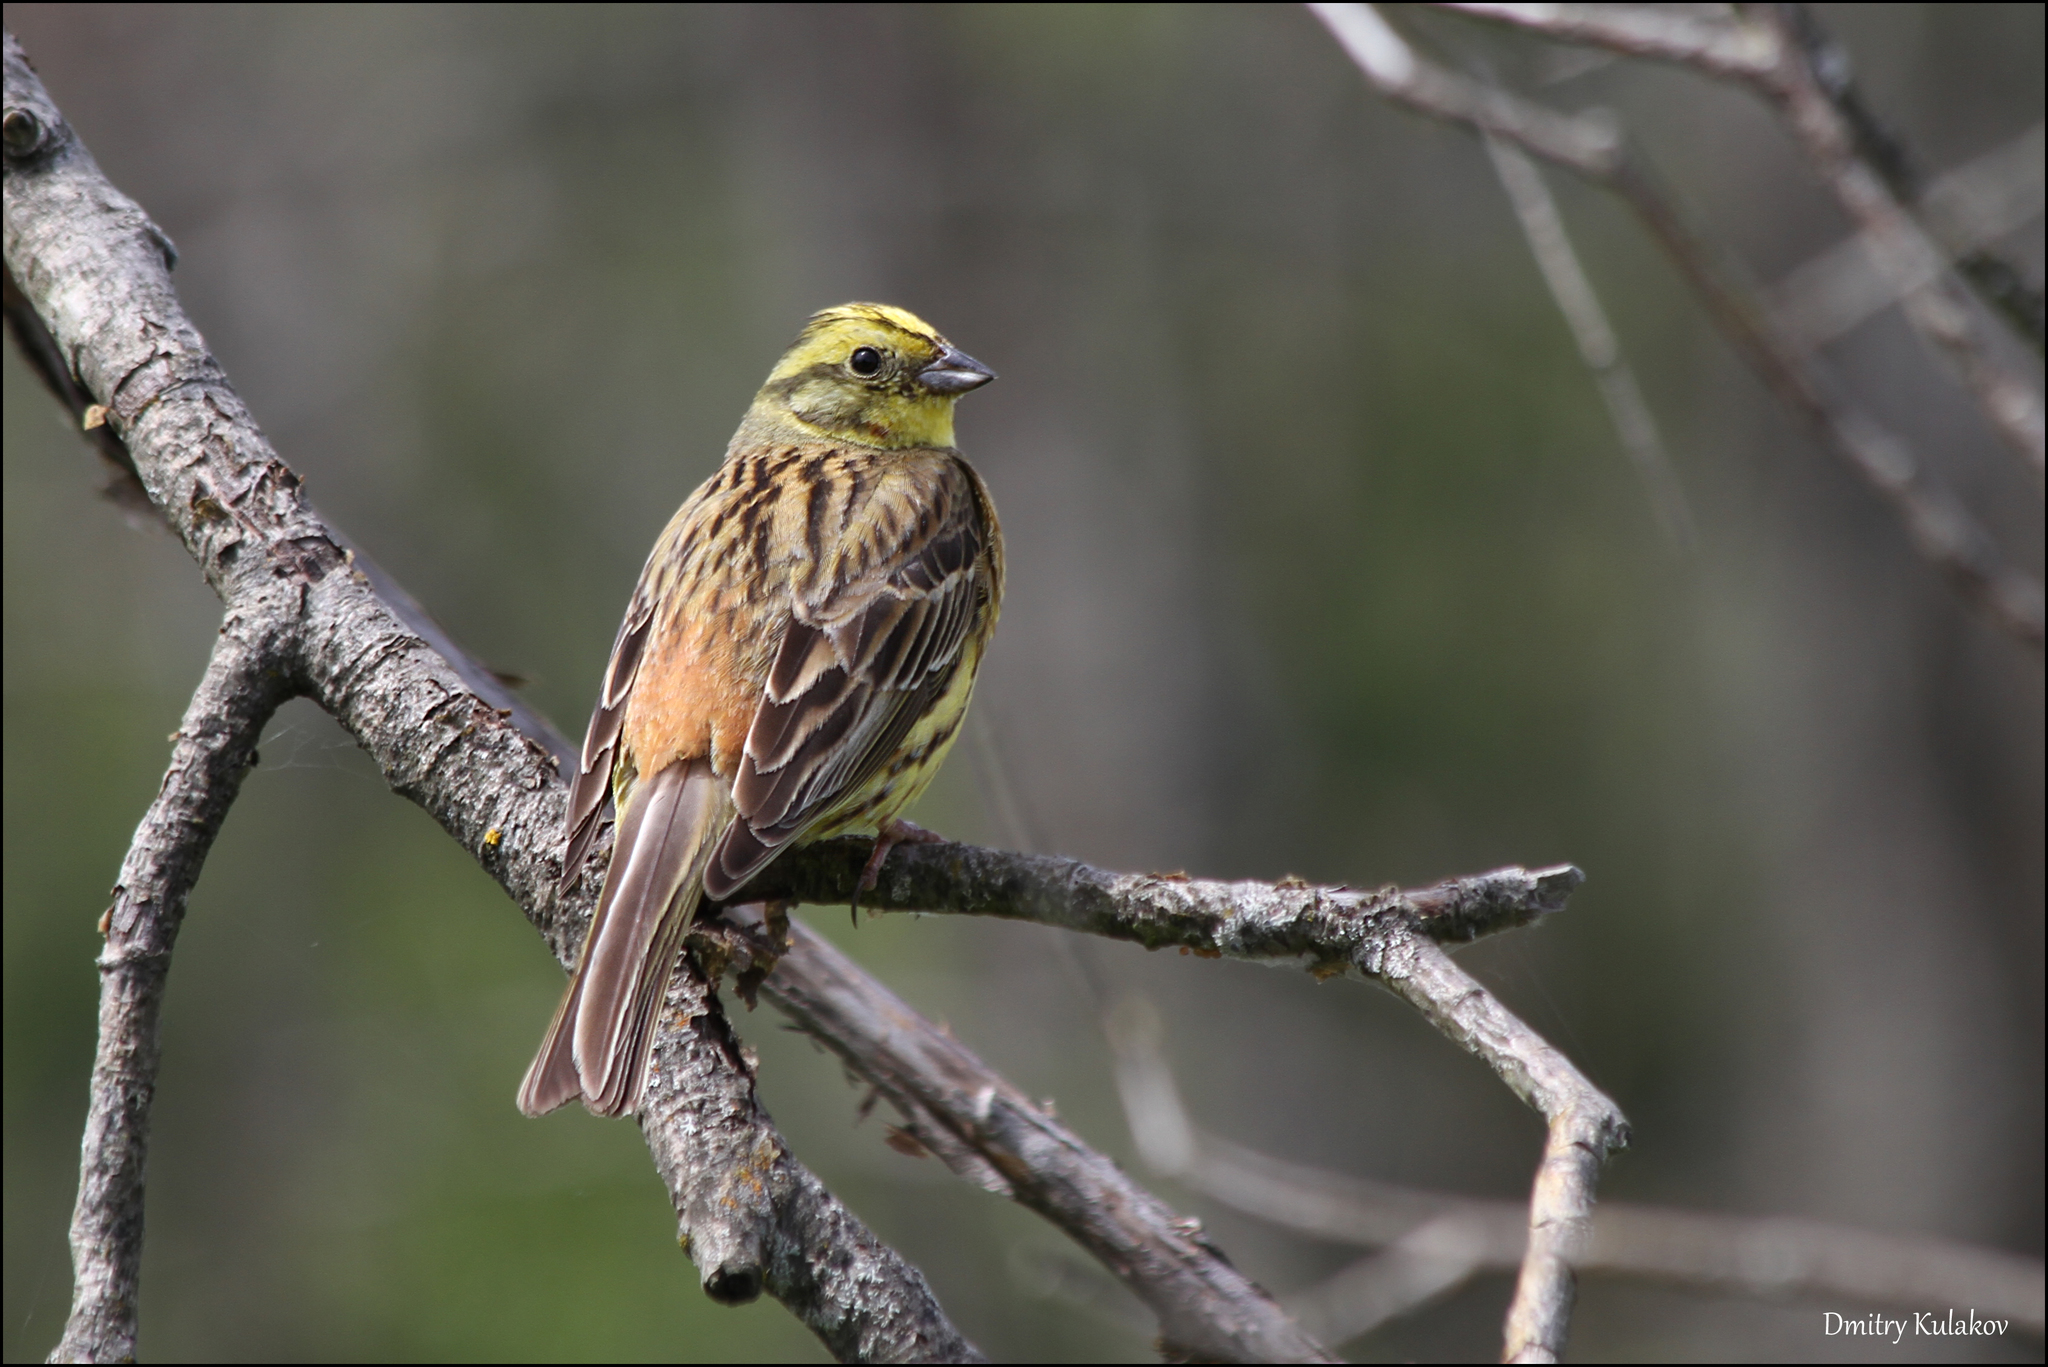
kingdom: Animalia
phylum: Chordata
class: Aves
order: Passeriformes
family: Emberizidae
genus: Emberiza
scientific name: Emberiza citrinella
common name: Yellowhammer
